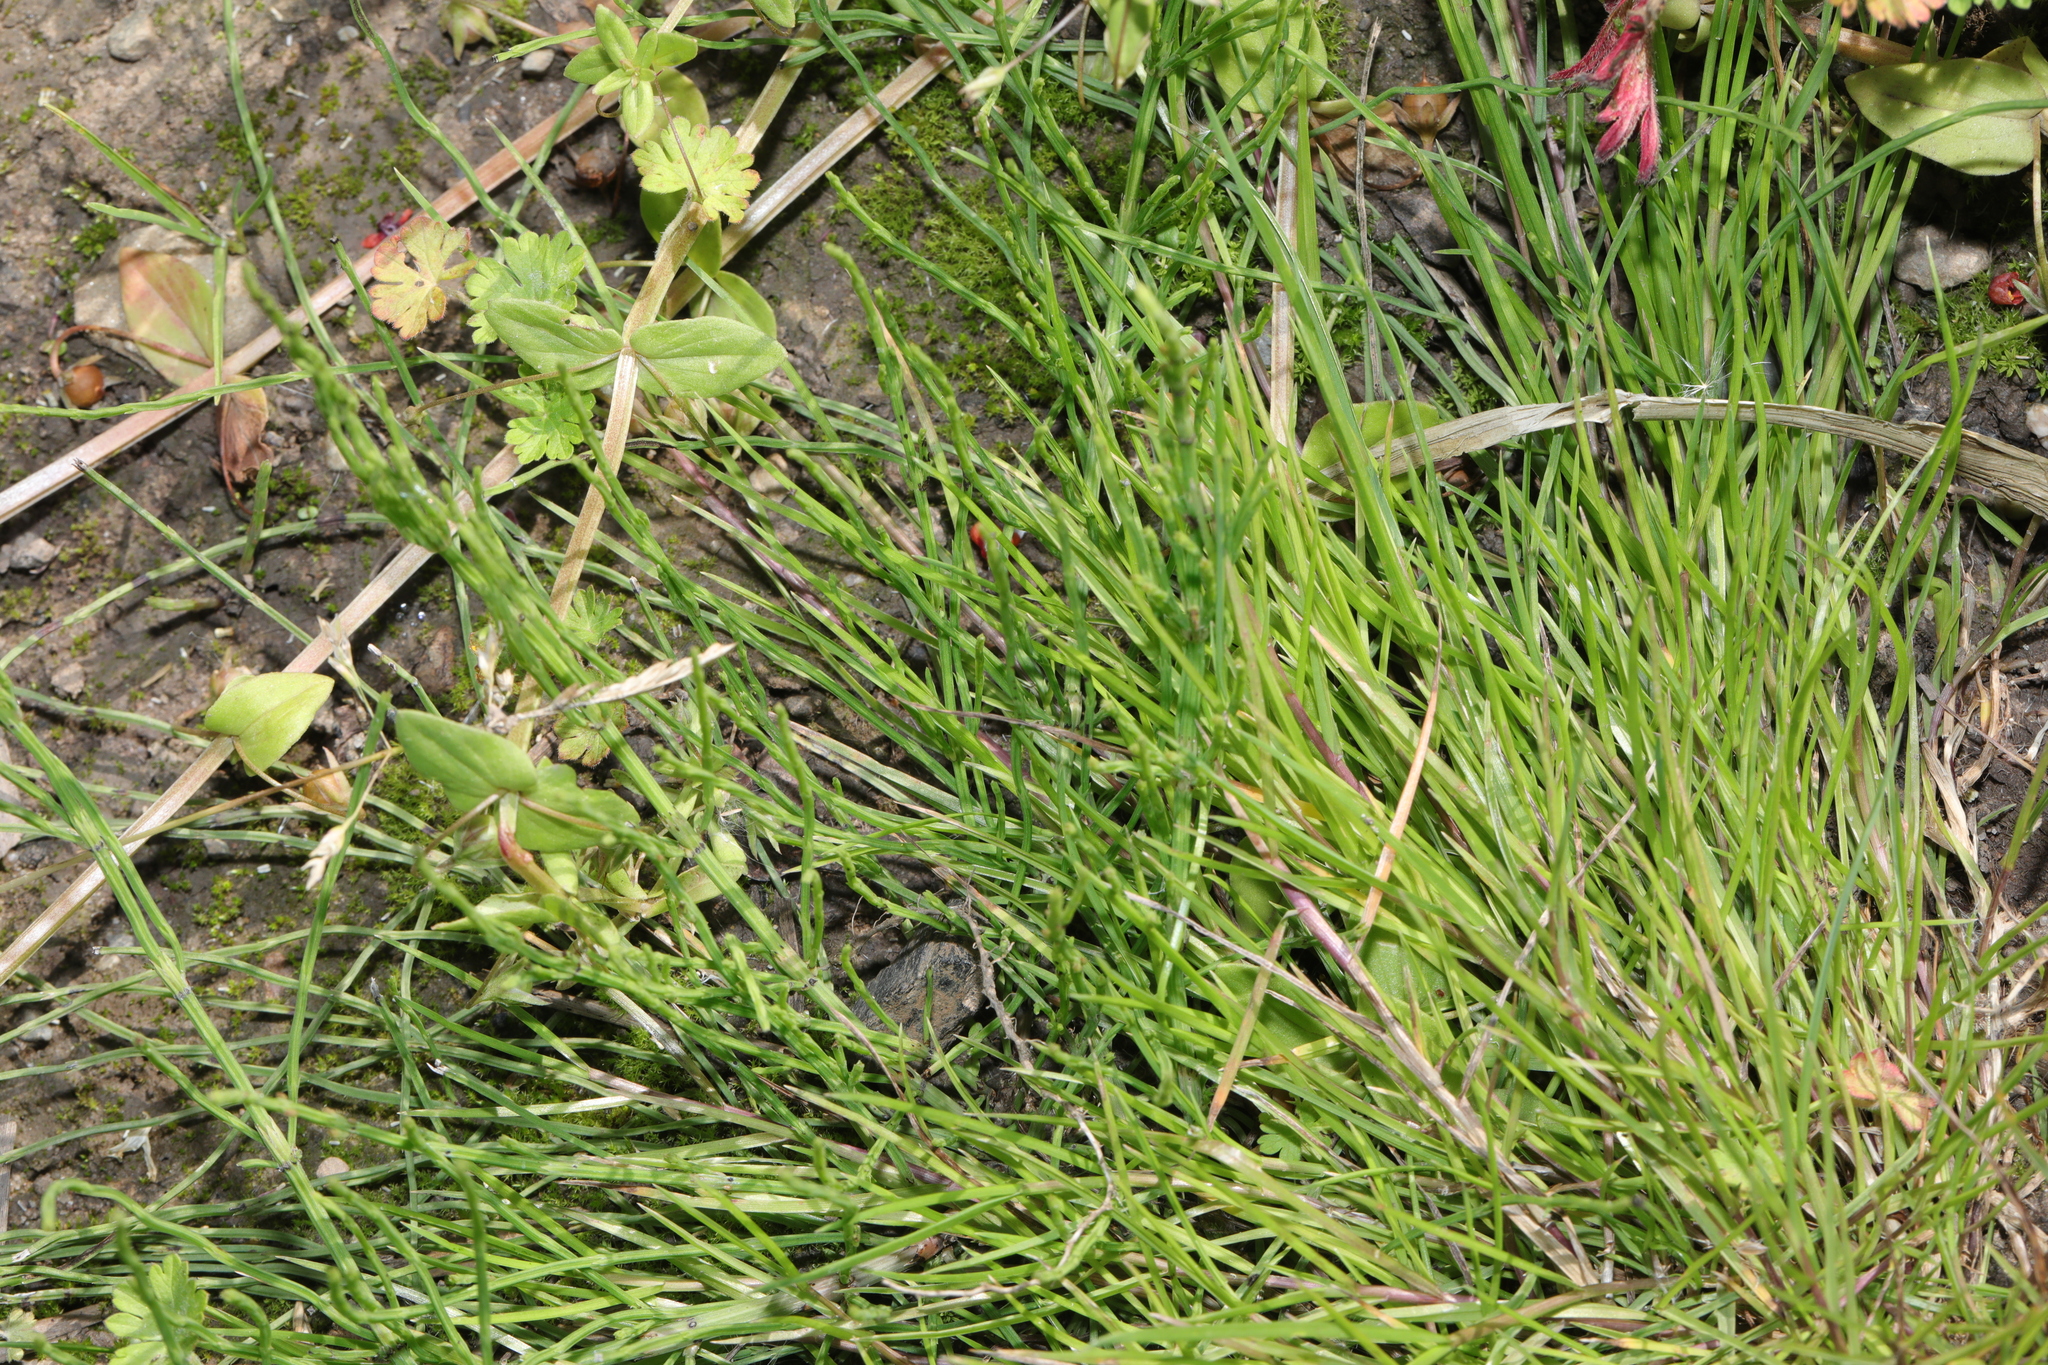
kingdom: Plantae
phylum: Tracheophyta
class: Polypodiopsida
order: Equisetales
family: Equisetaceae
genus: Equisetum
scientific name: Equisetum arvense
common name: Field horsetail
